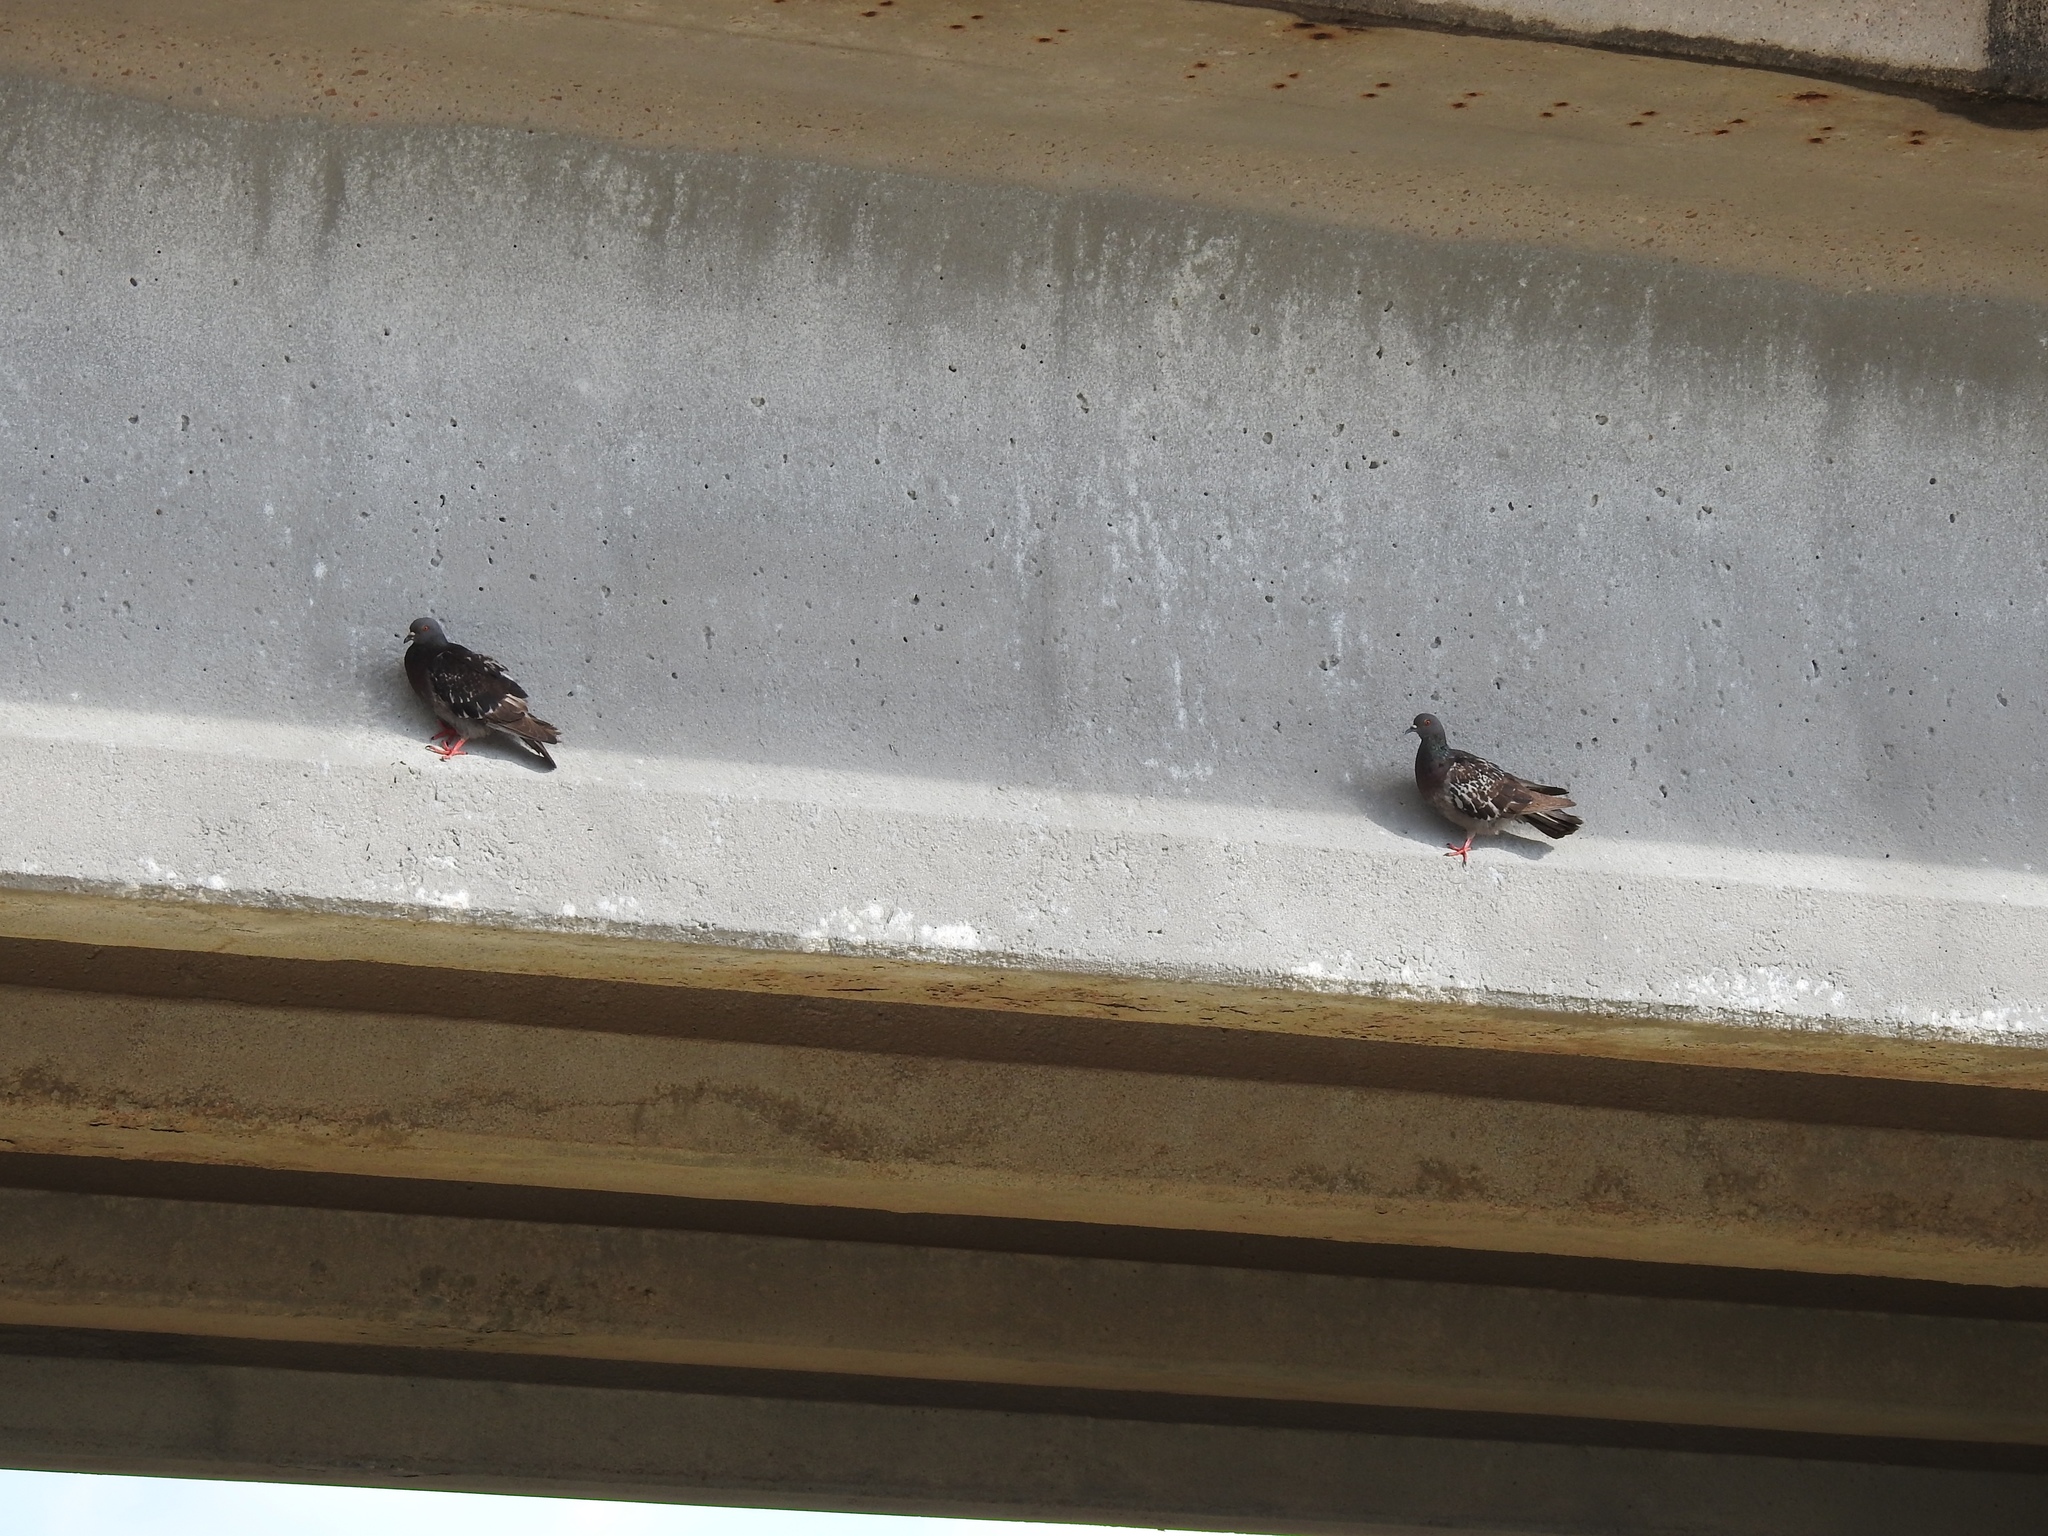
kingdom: Animalia
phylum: Chordata
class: Aves
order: Columbiformes
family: Columbidae
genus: Columba
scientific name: Columba livia
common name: Rock pigeon
